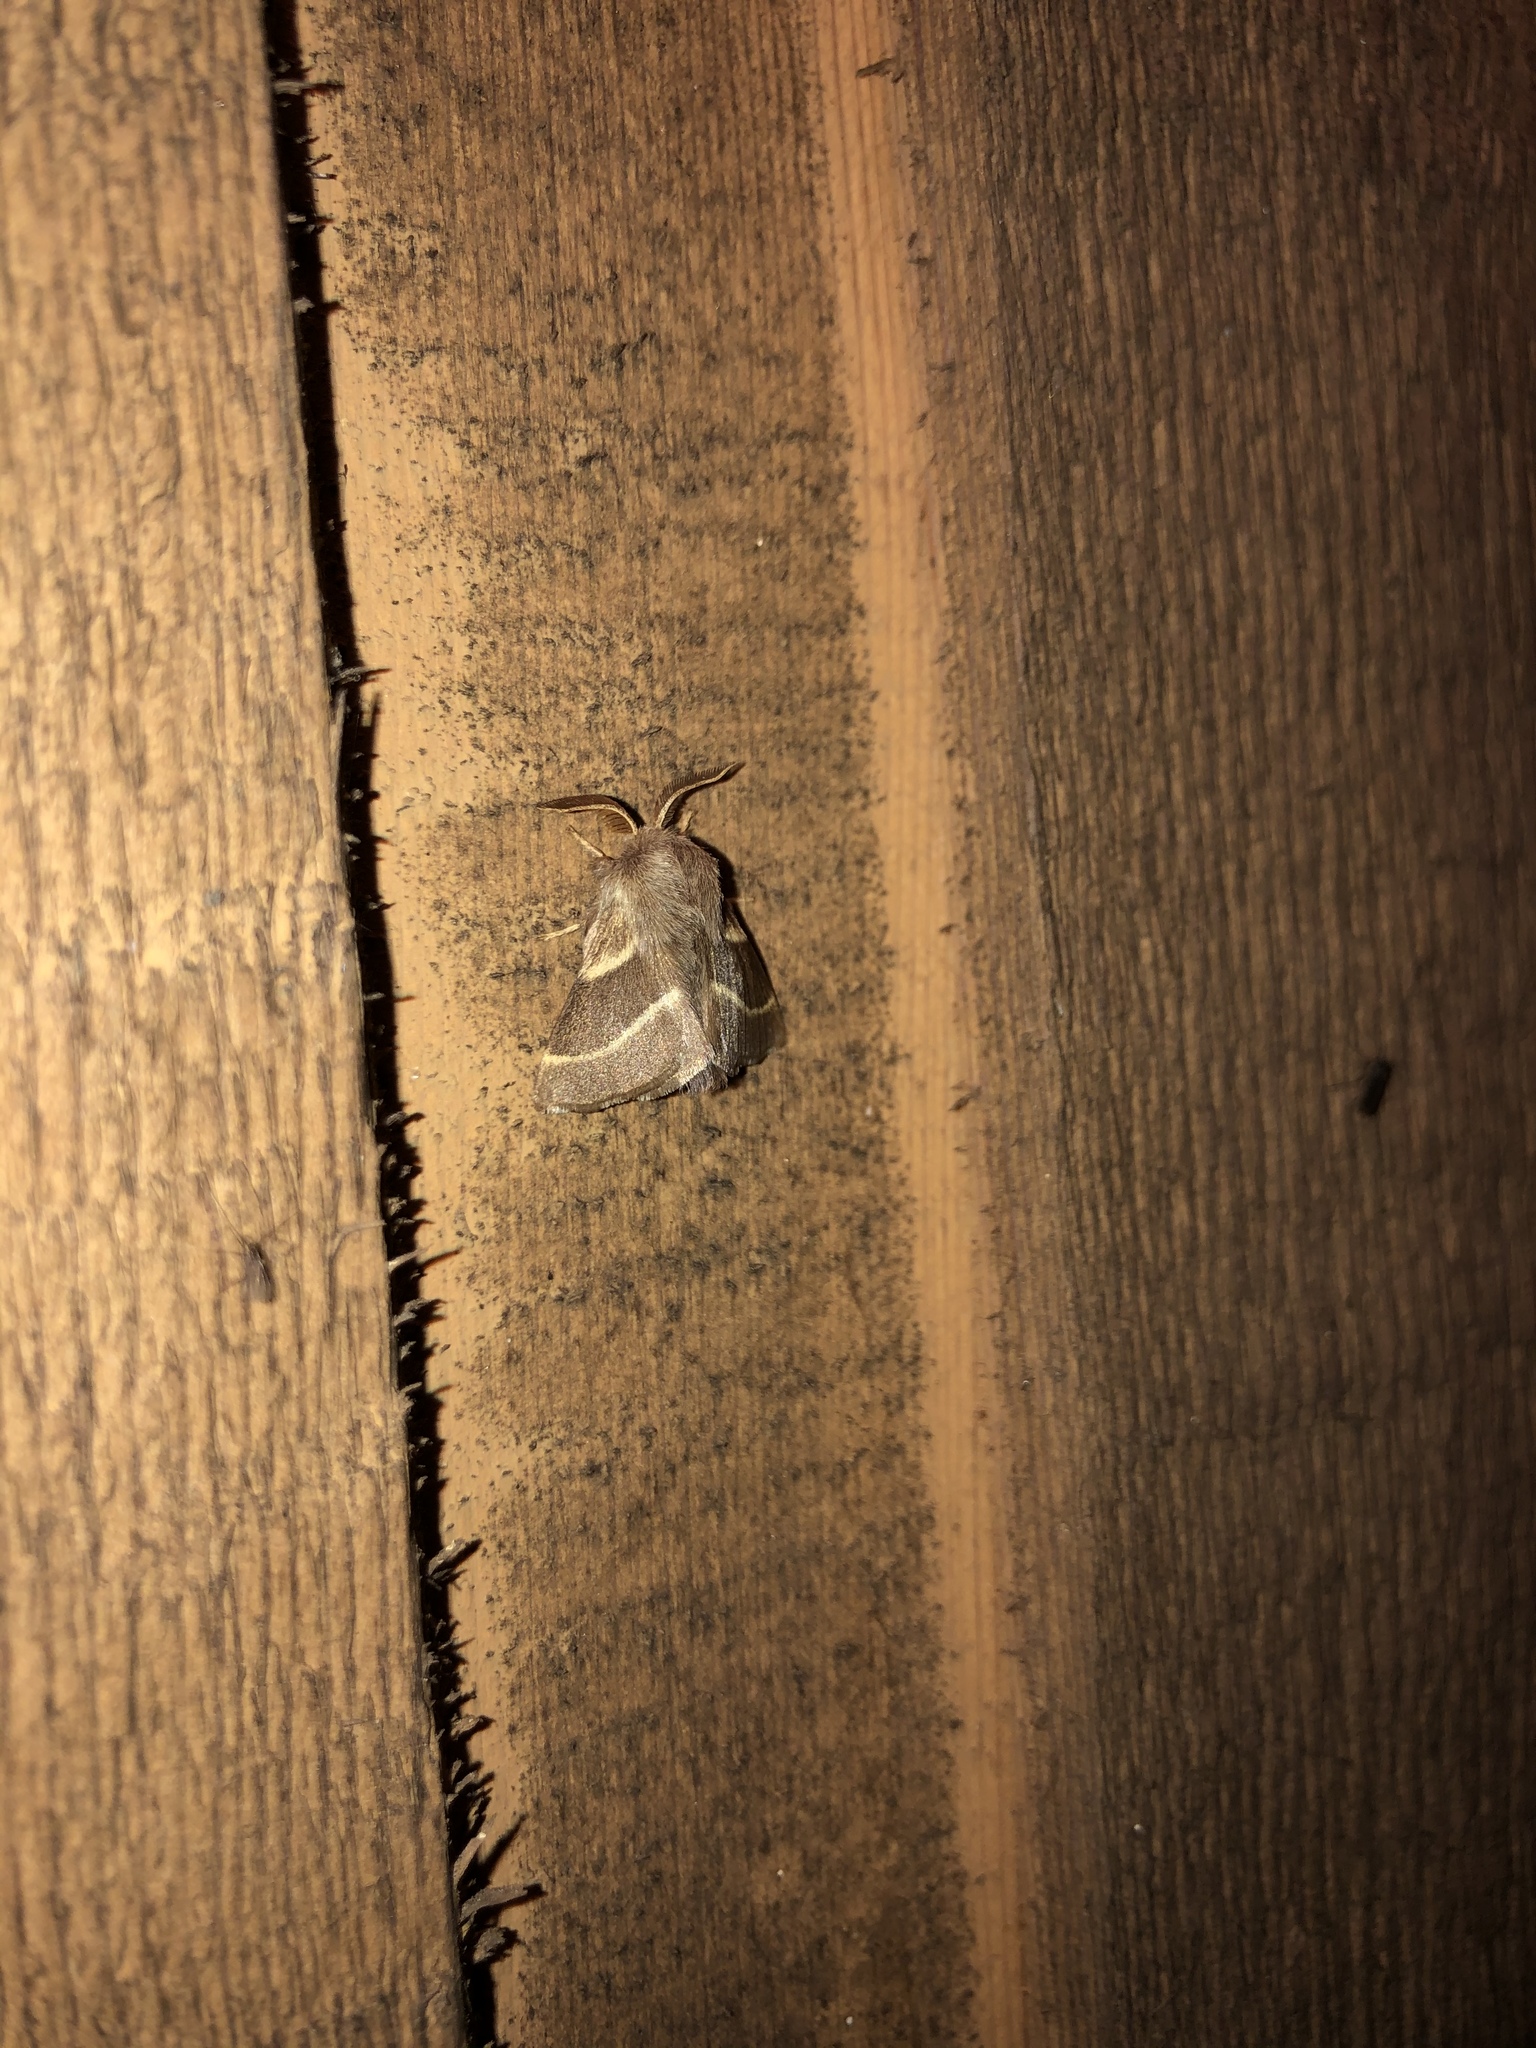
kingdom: Animalia
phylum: Arthropoda
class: Insecta
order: Lepidoptera
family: Lasiocampidae
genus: Malacosoma
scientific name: Malacosoma californica
